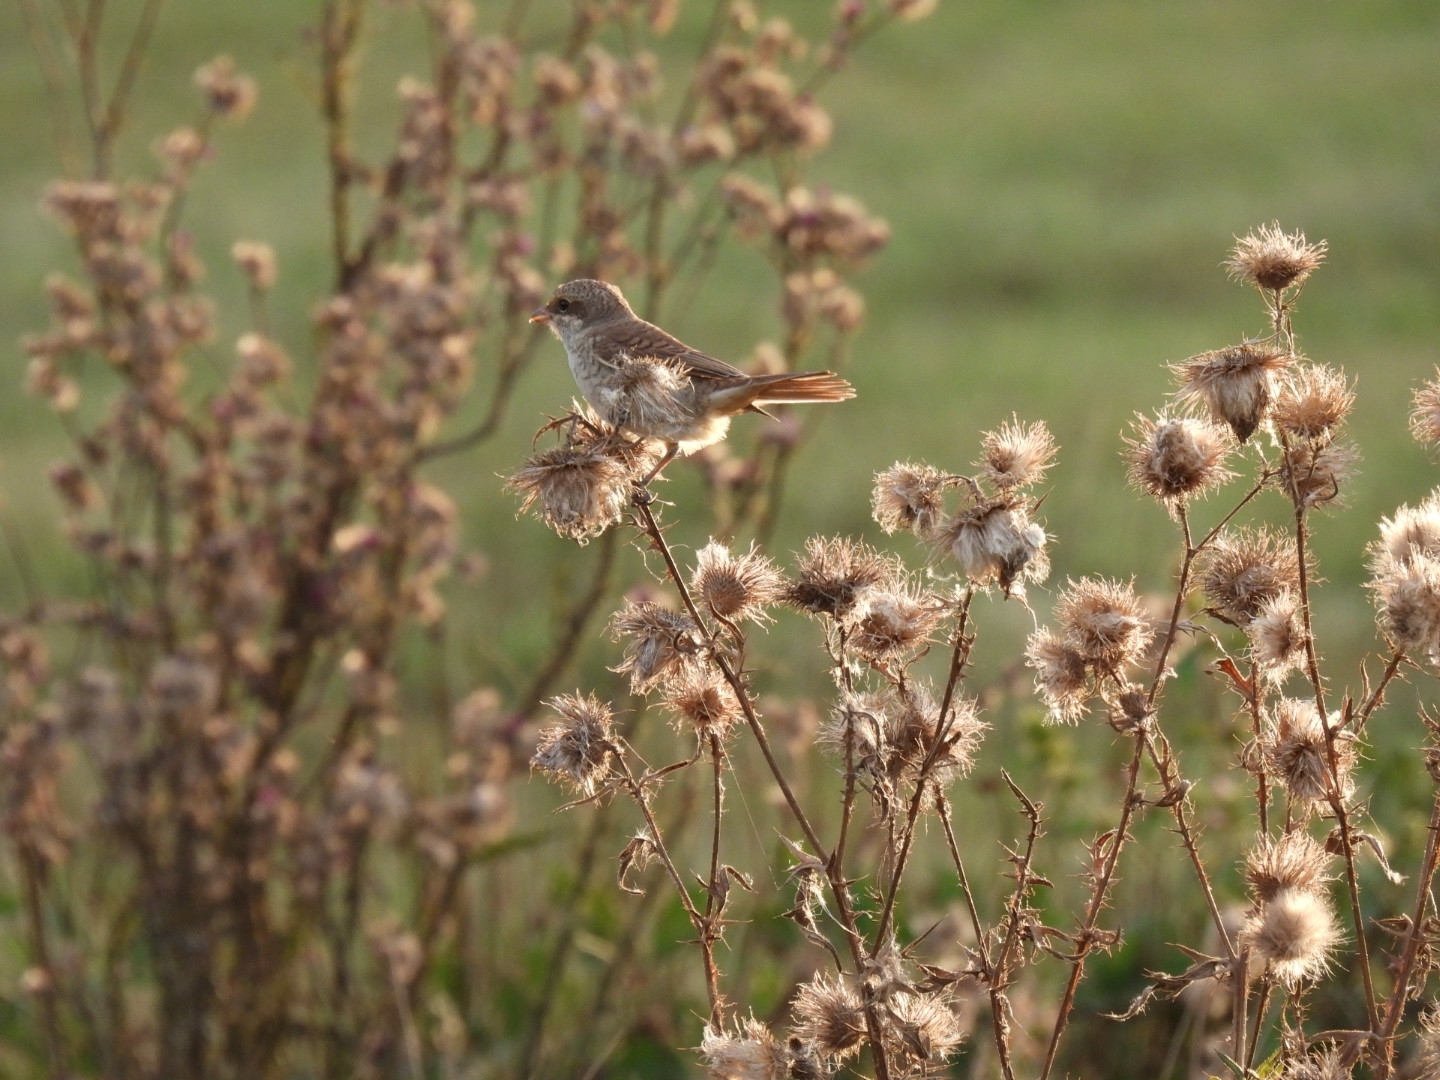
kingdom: Animalia
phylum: Chordata
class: Aves
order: Passeriformes
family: Laniidae
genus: Lanius
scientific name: Lanius collurio
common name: Red-backed shrike
